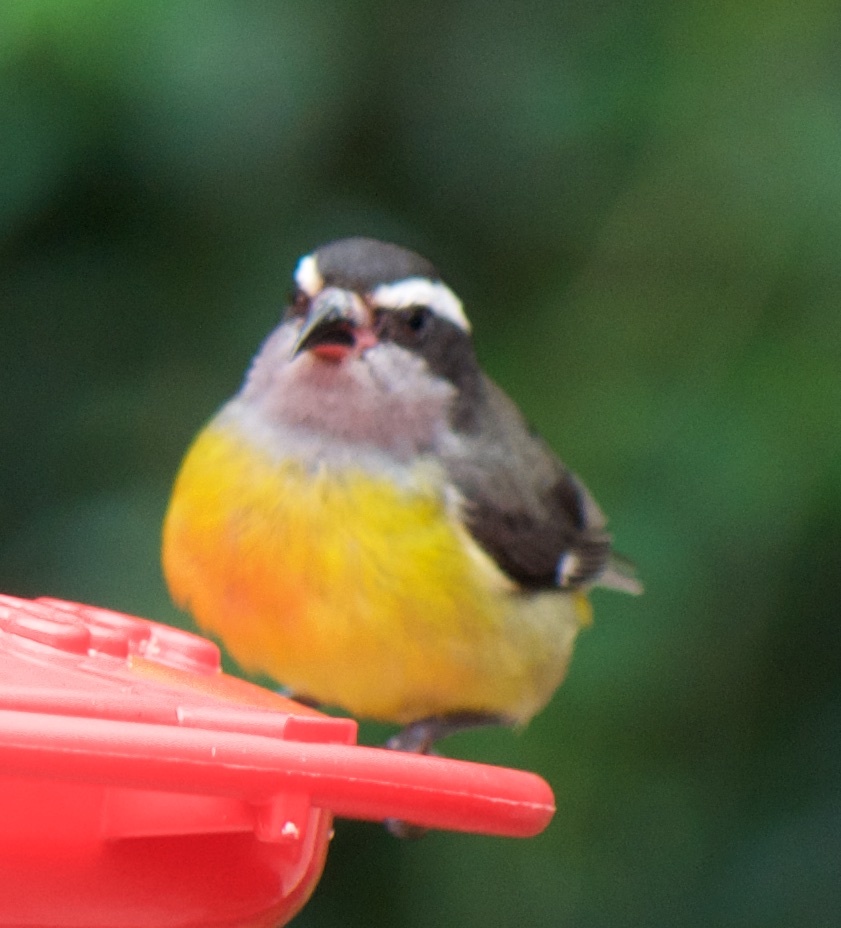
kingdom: Animalia
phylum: Chordata
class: Aves
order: Passeriformes
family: Thraupidae
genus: Coereba
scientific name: Coereba flaveola
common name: Bananaquit
